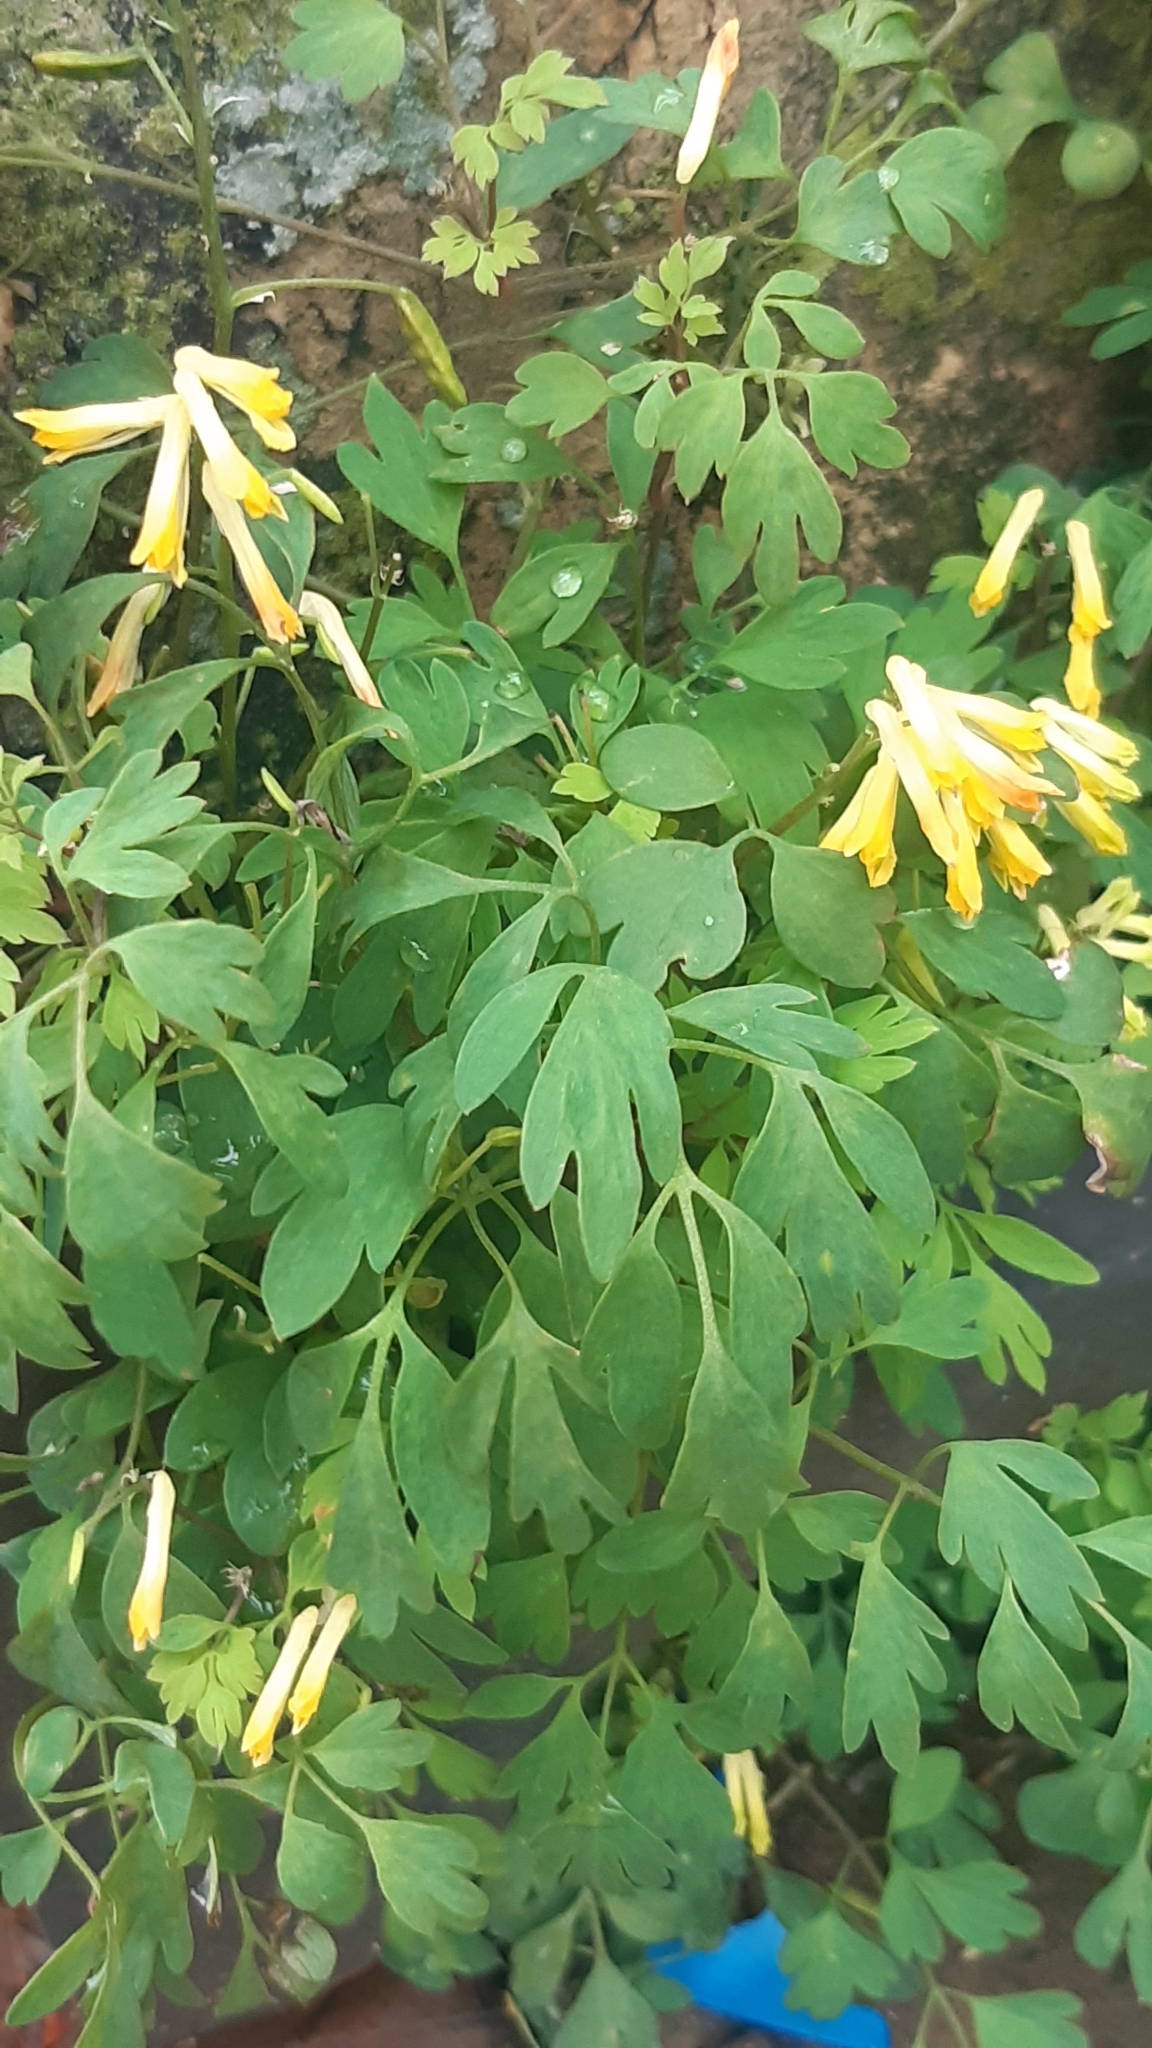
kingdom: Plantae
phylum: Tracheophyta
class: Magnoliopsida
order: Ranunculales
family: Papaveraceae
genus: Pseudofumaria
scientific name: Pseudofumaria lutea
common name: Yellow corydalis
